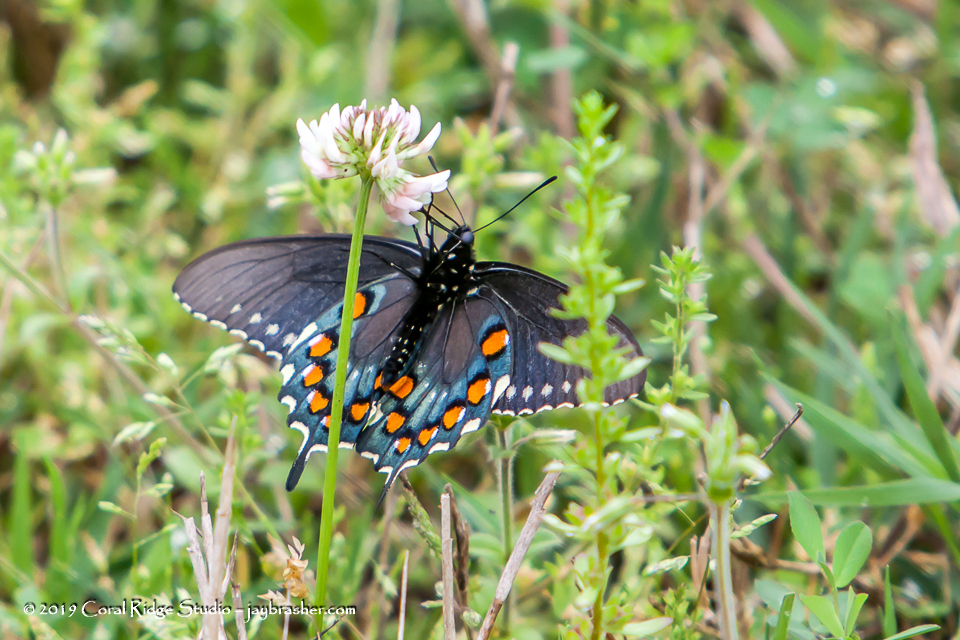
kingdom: Animalia
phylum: Arthropoda
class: Insecta
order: Lepidoptera
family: Papilionidae
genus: Battus
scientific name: Battus philenor
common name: Pipevine swallowtail
